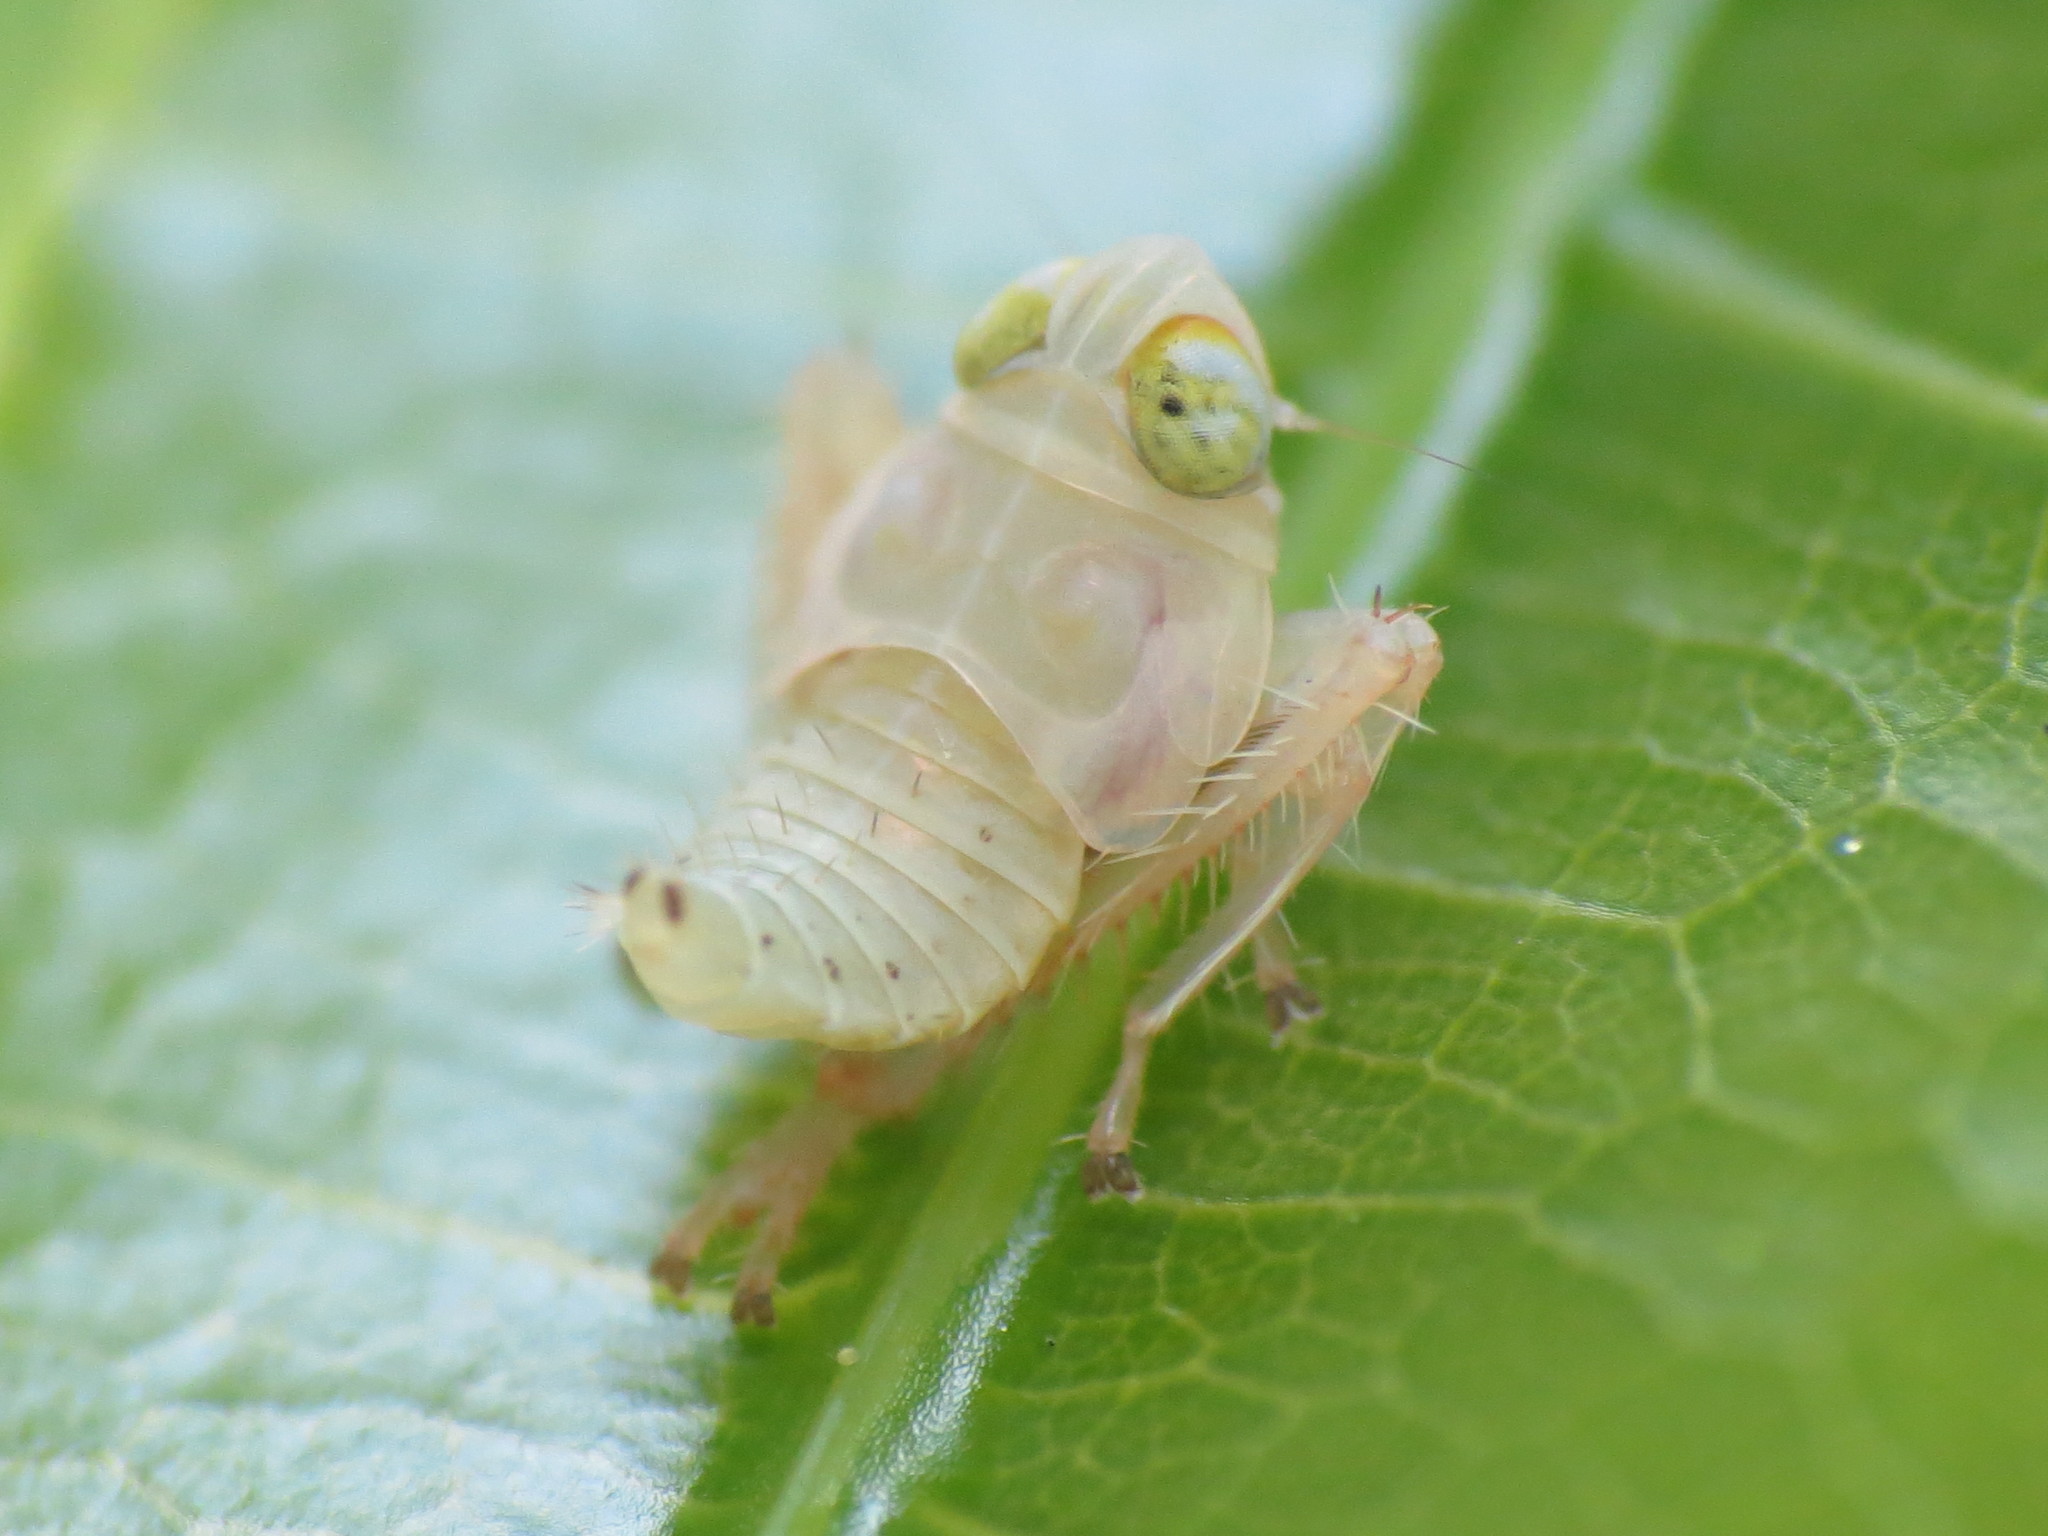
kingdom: Animalia
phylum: Arthropoda
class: Insecta
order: Hemiptera
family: Cicadellidae
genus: Jikradia
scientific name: Jikradia olitoria
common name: Coppery leafhopper
